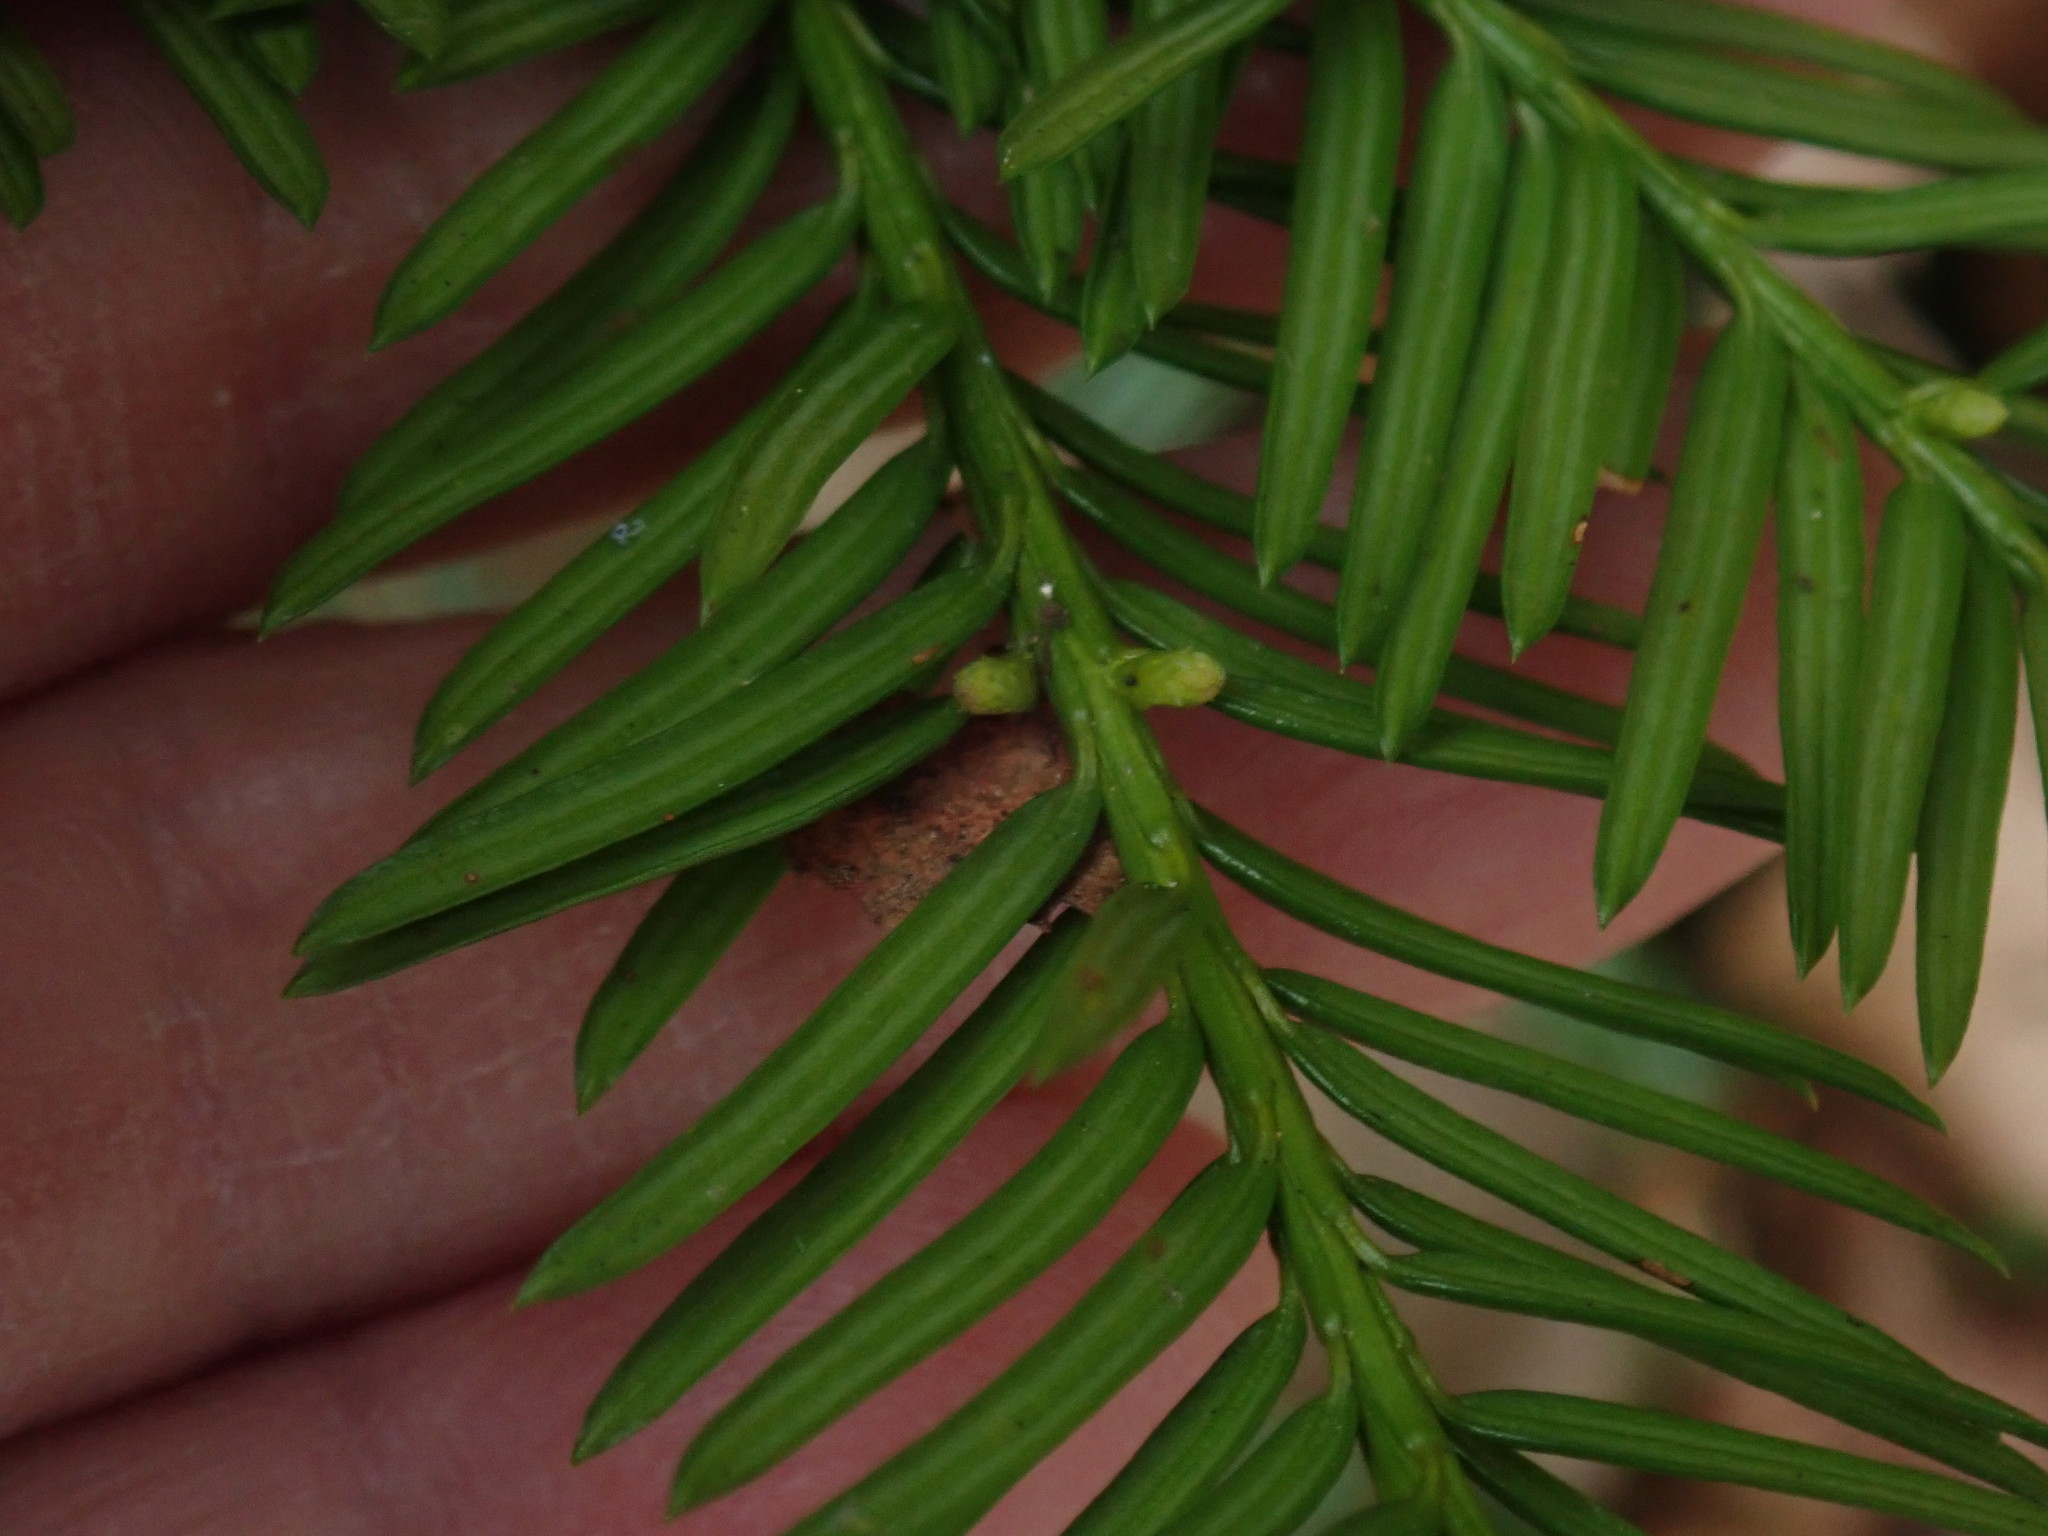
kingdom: Plantae
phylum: Tracheophyta
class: Pinopsida
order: Pinales
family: Taxaceae
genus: Taxus
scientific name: Taxus canadensis
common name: American yew
